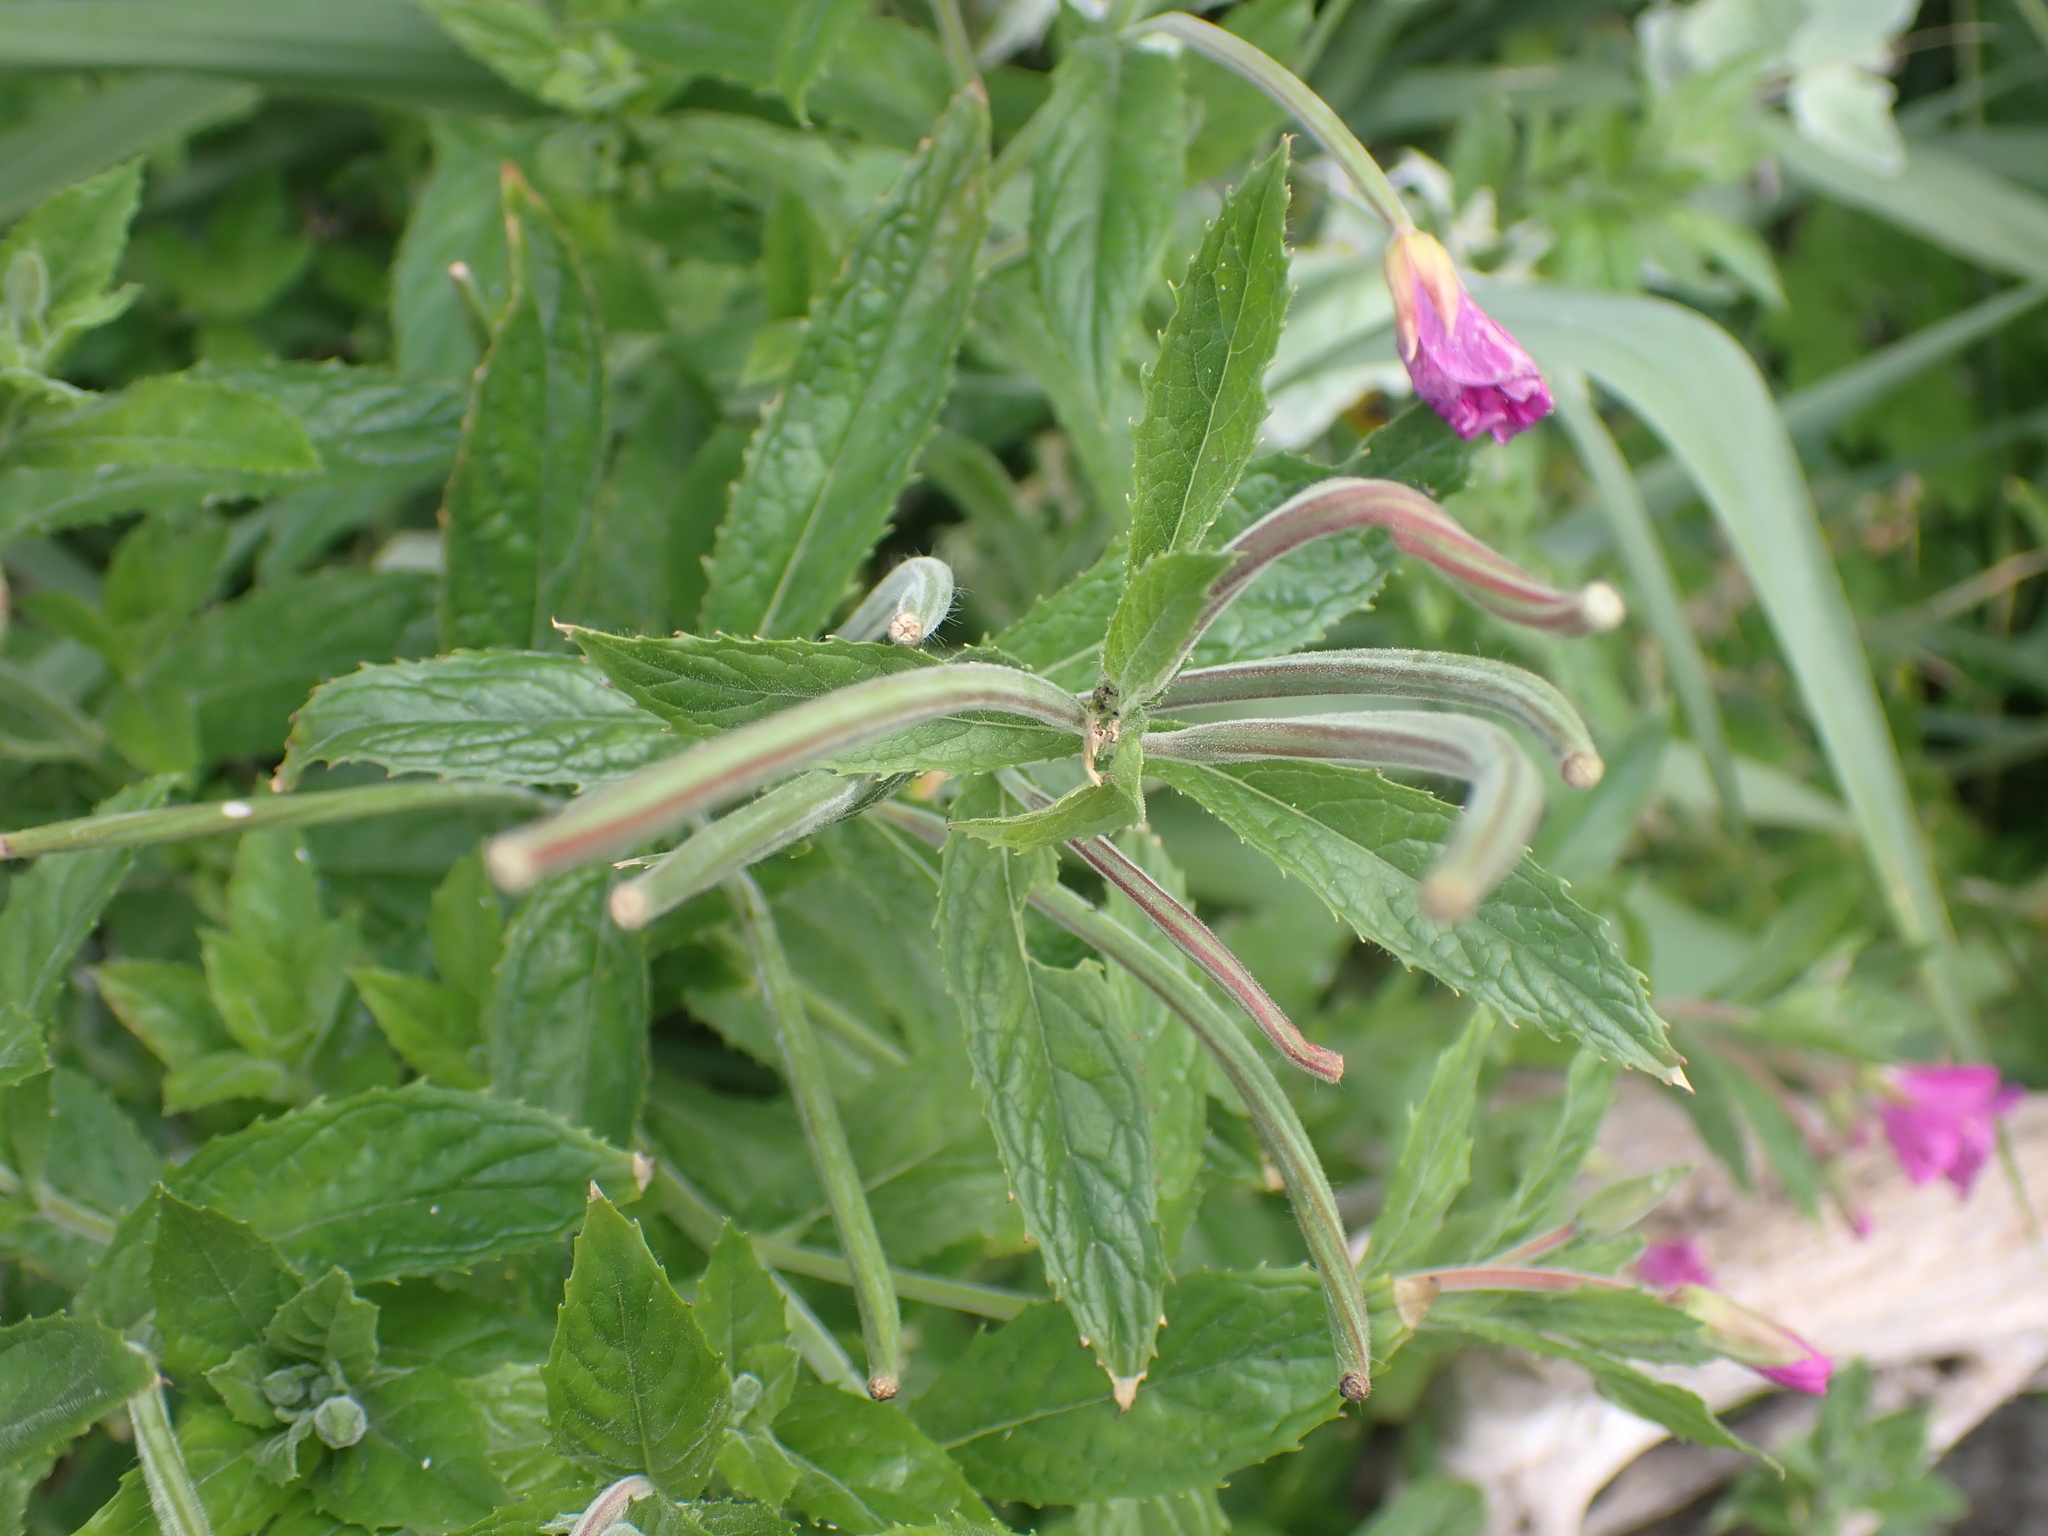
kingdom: Plantae
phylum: Tracheophyta
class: Magnoliopsida
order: Myrtales
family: Onagraceae
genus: Epilobium
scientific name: Epilobium hirsutum
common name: Great willowherb
